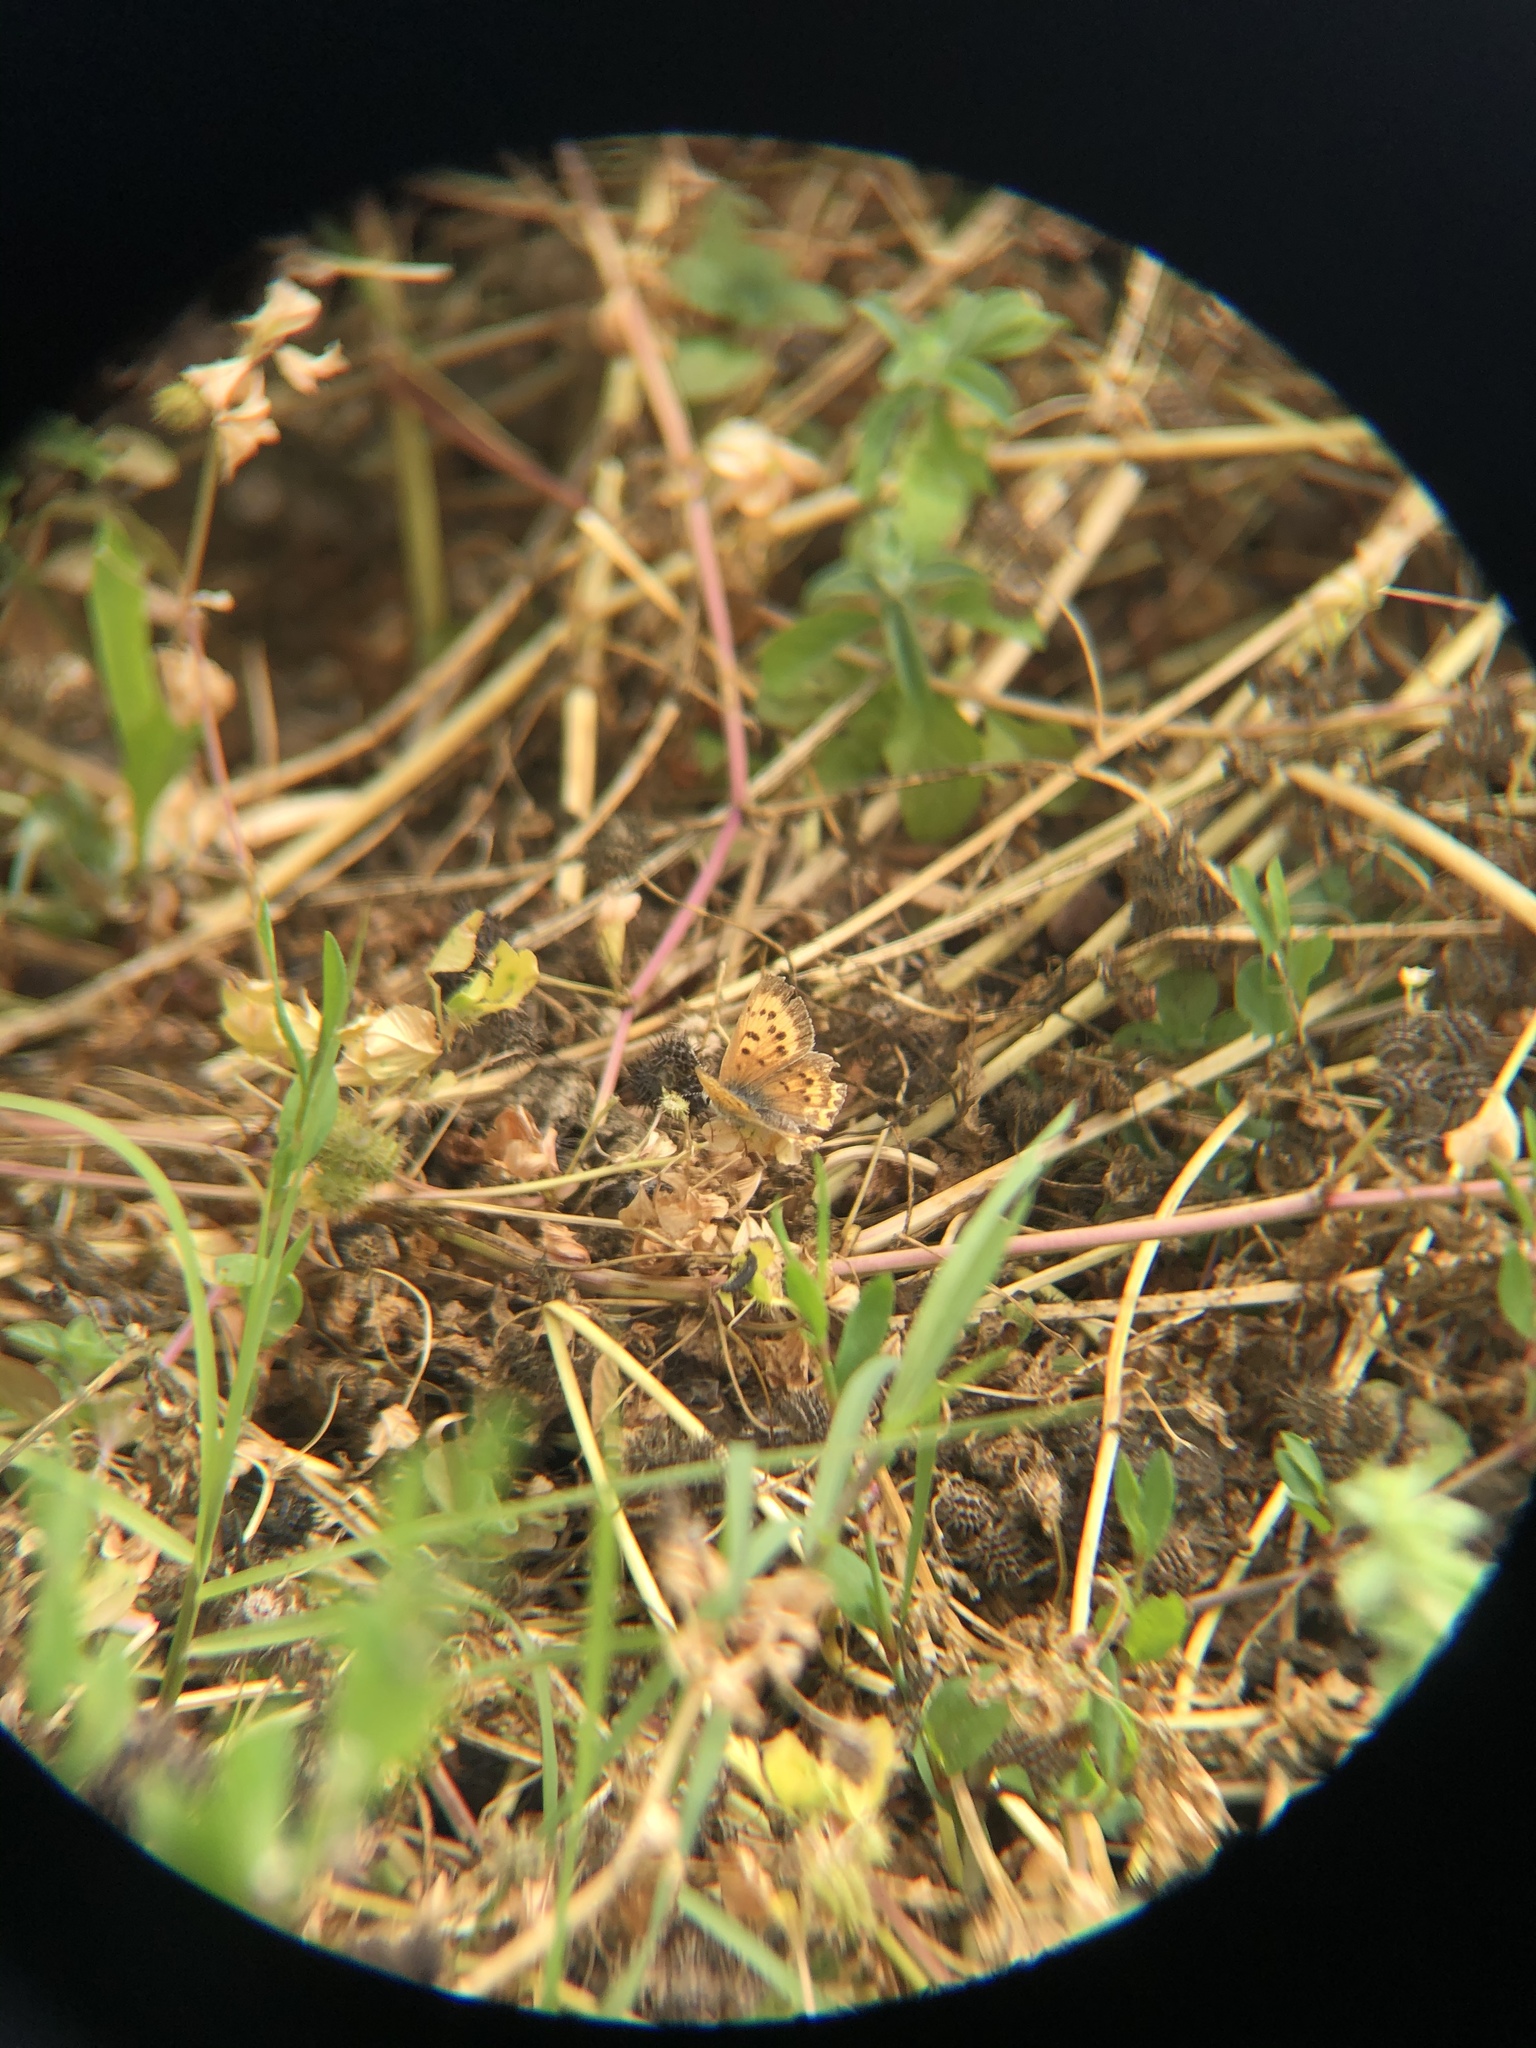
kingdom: Animalia
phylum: Arthropoda
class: Insecta
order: Lepidoptera
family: Lycaenidae
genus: Tharsalea
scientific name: Tharsalea helloides
